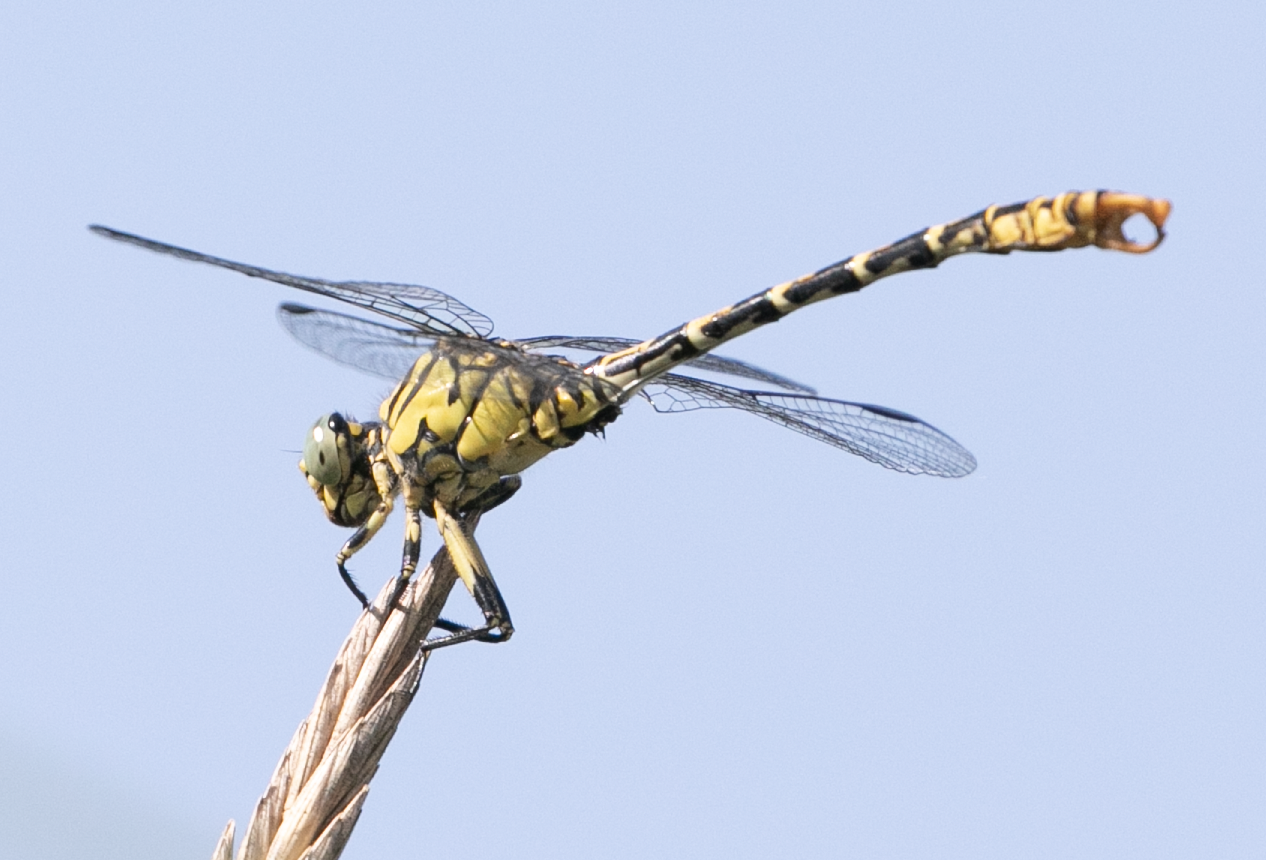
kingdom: Animalia
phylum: Arthropoda
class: Insecta
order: Odonata
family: Gomphidae
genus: Onychogomphus
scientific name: Onychogomphus forcipatus
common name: Small pincertail
